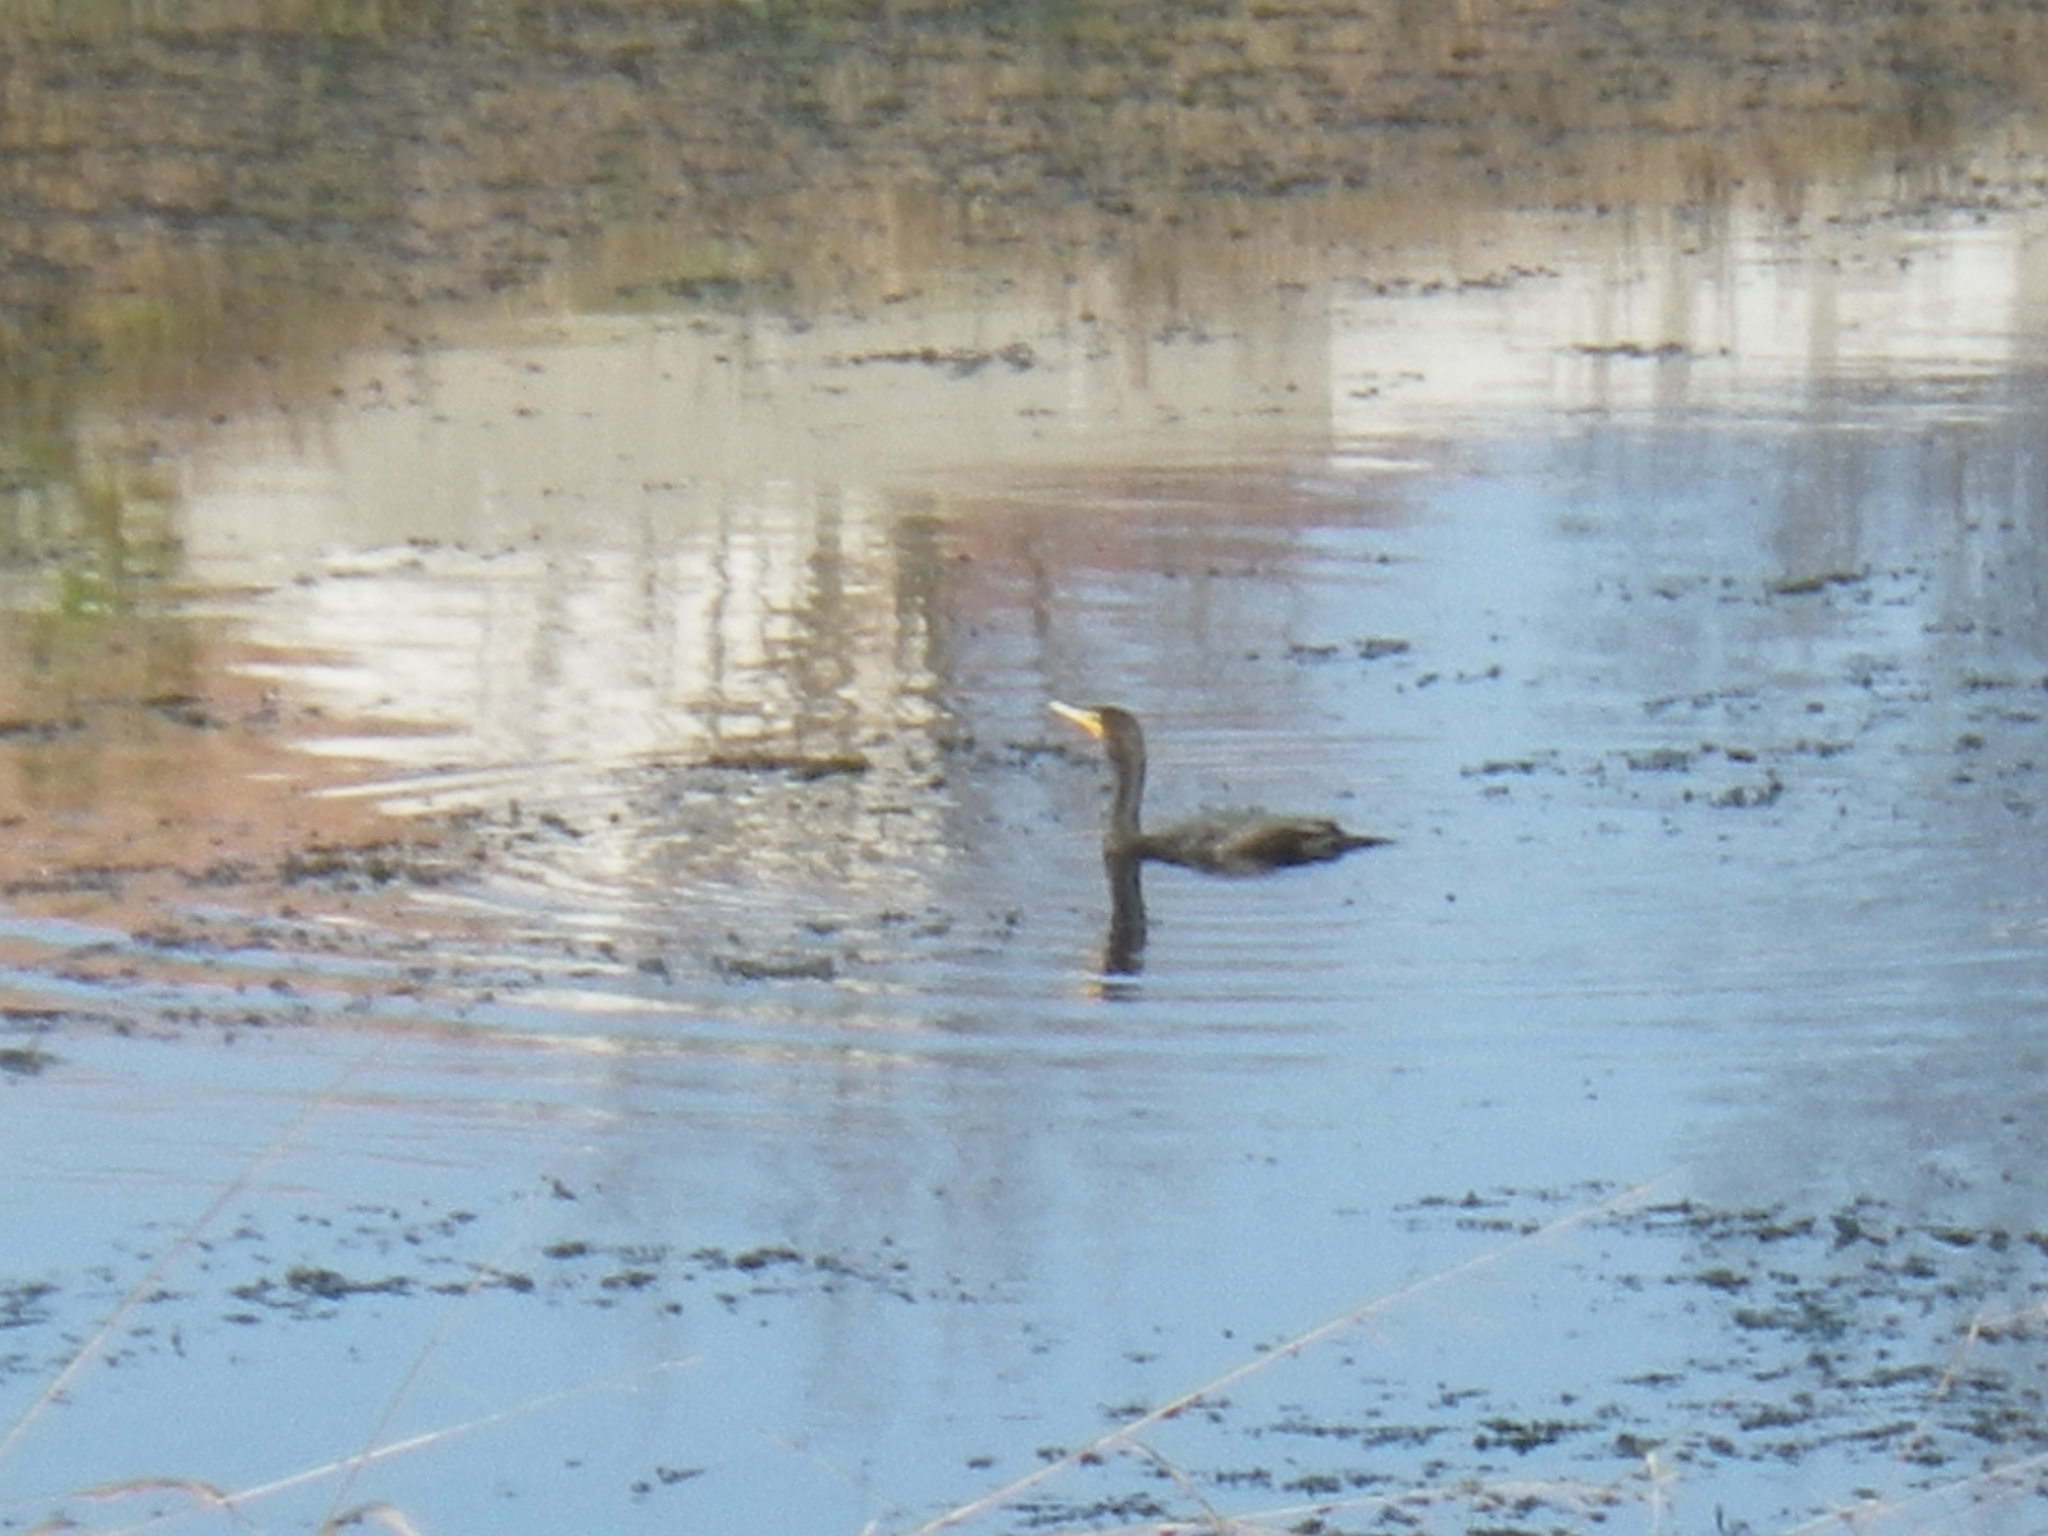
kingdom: Animalia
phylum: Chordata
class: Aves
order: Suliformes
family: Phalacrocoracidae
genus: Phalacrocorax
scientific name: Phalacrocorax auritus
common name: Double-crested cormorant
